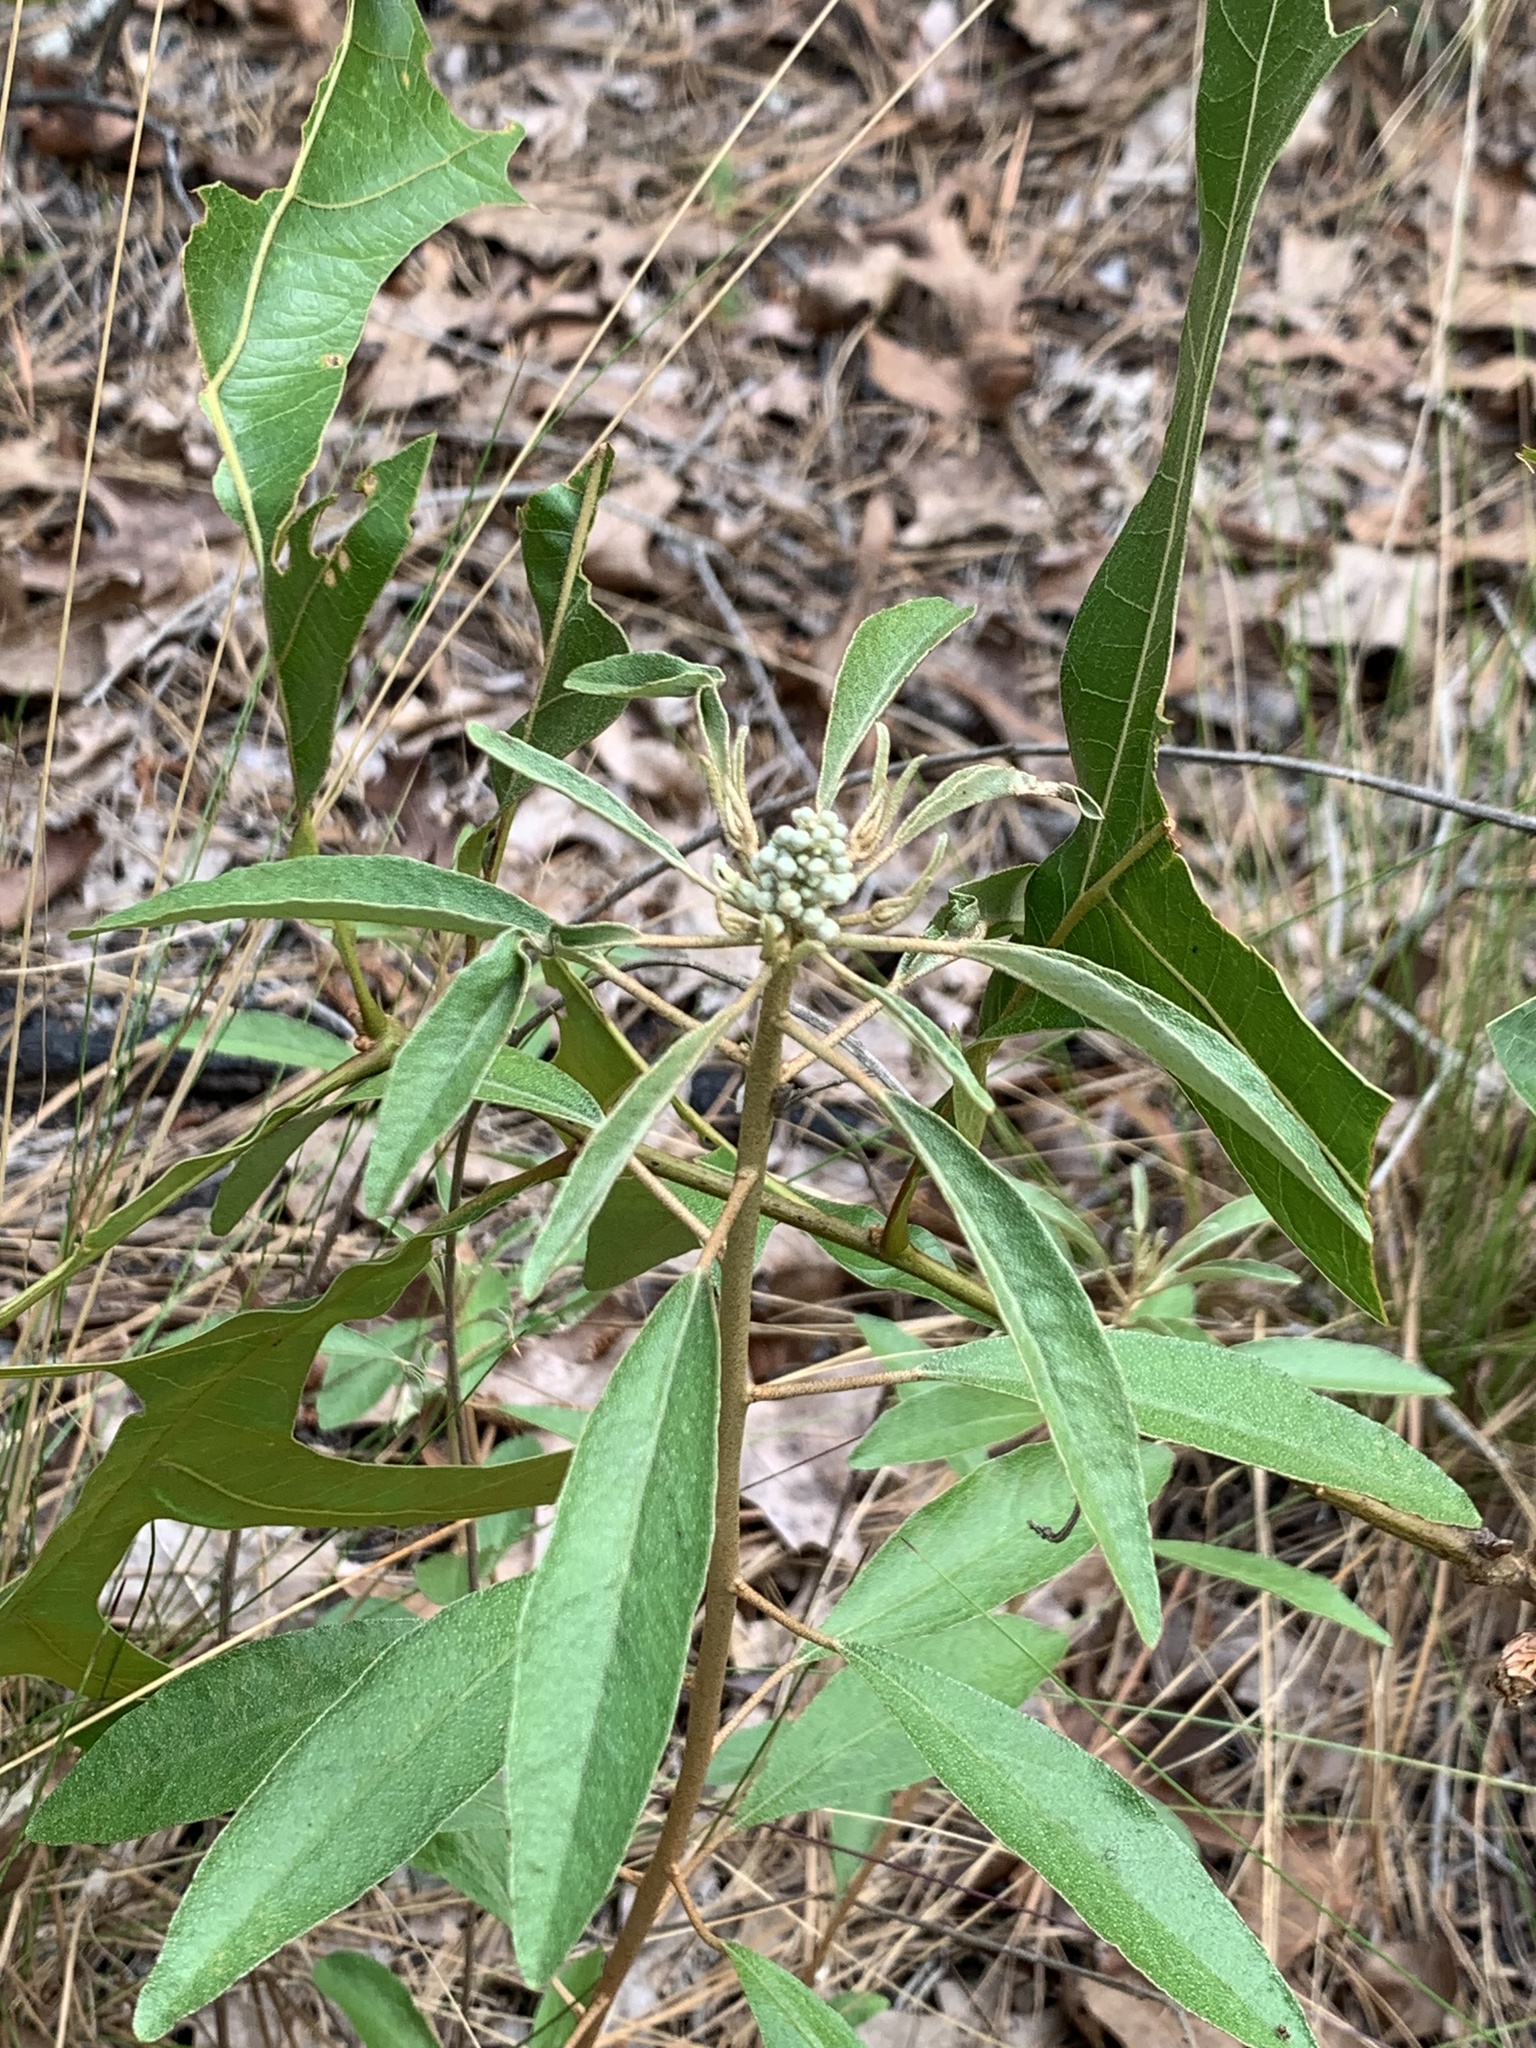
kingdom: Plantae
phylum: Tracheophyta
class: Magnoliopsida
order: Malpighiales
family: Euphorbiaceae
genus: Croton
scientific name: Croton argyranthemus
